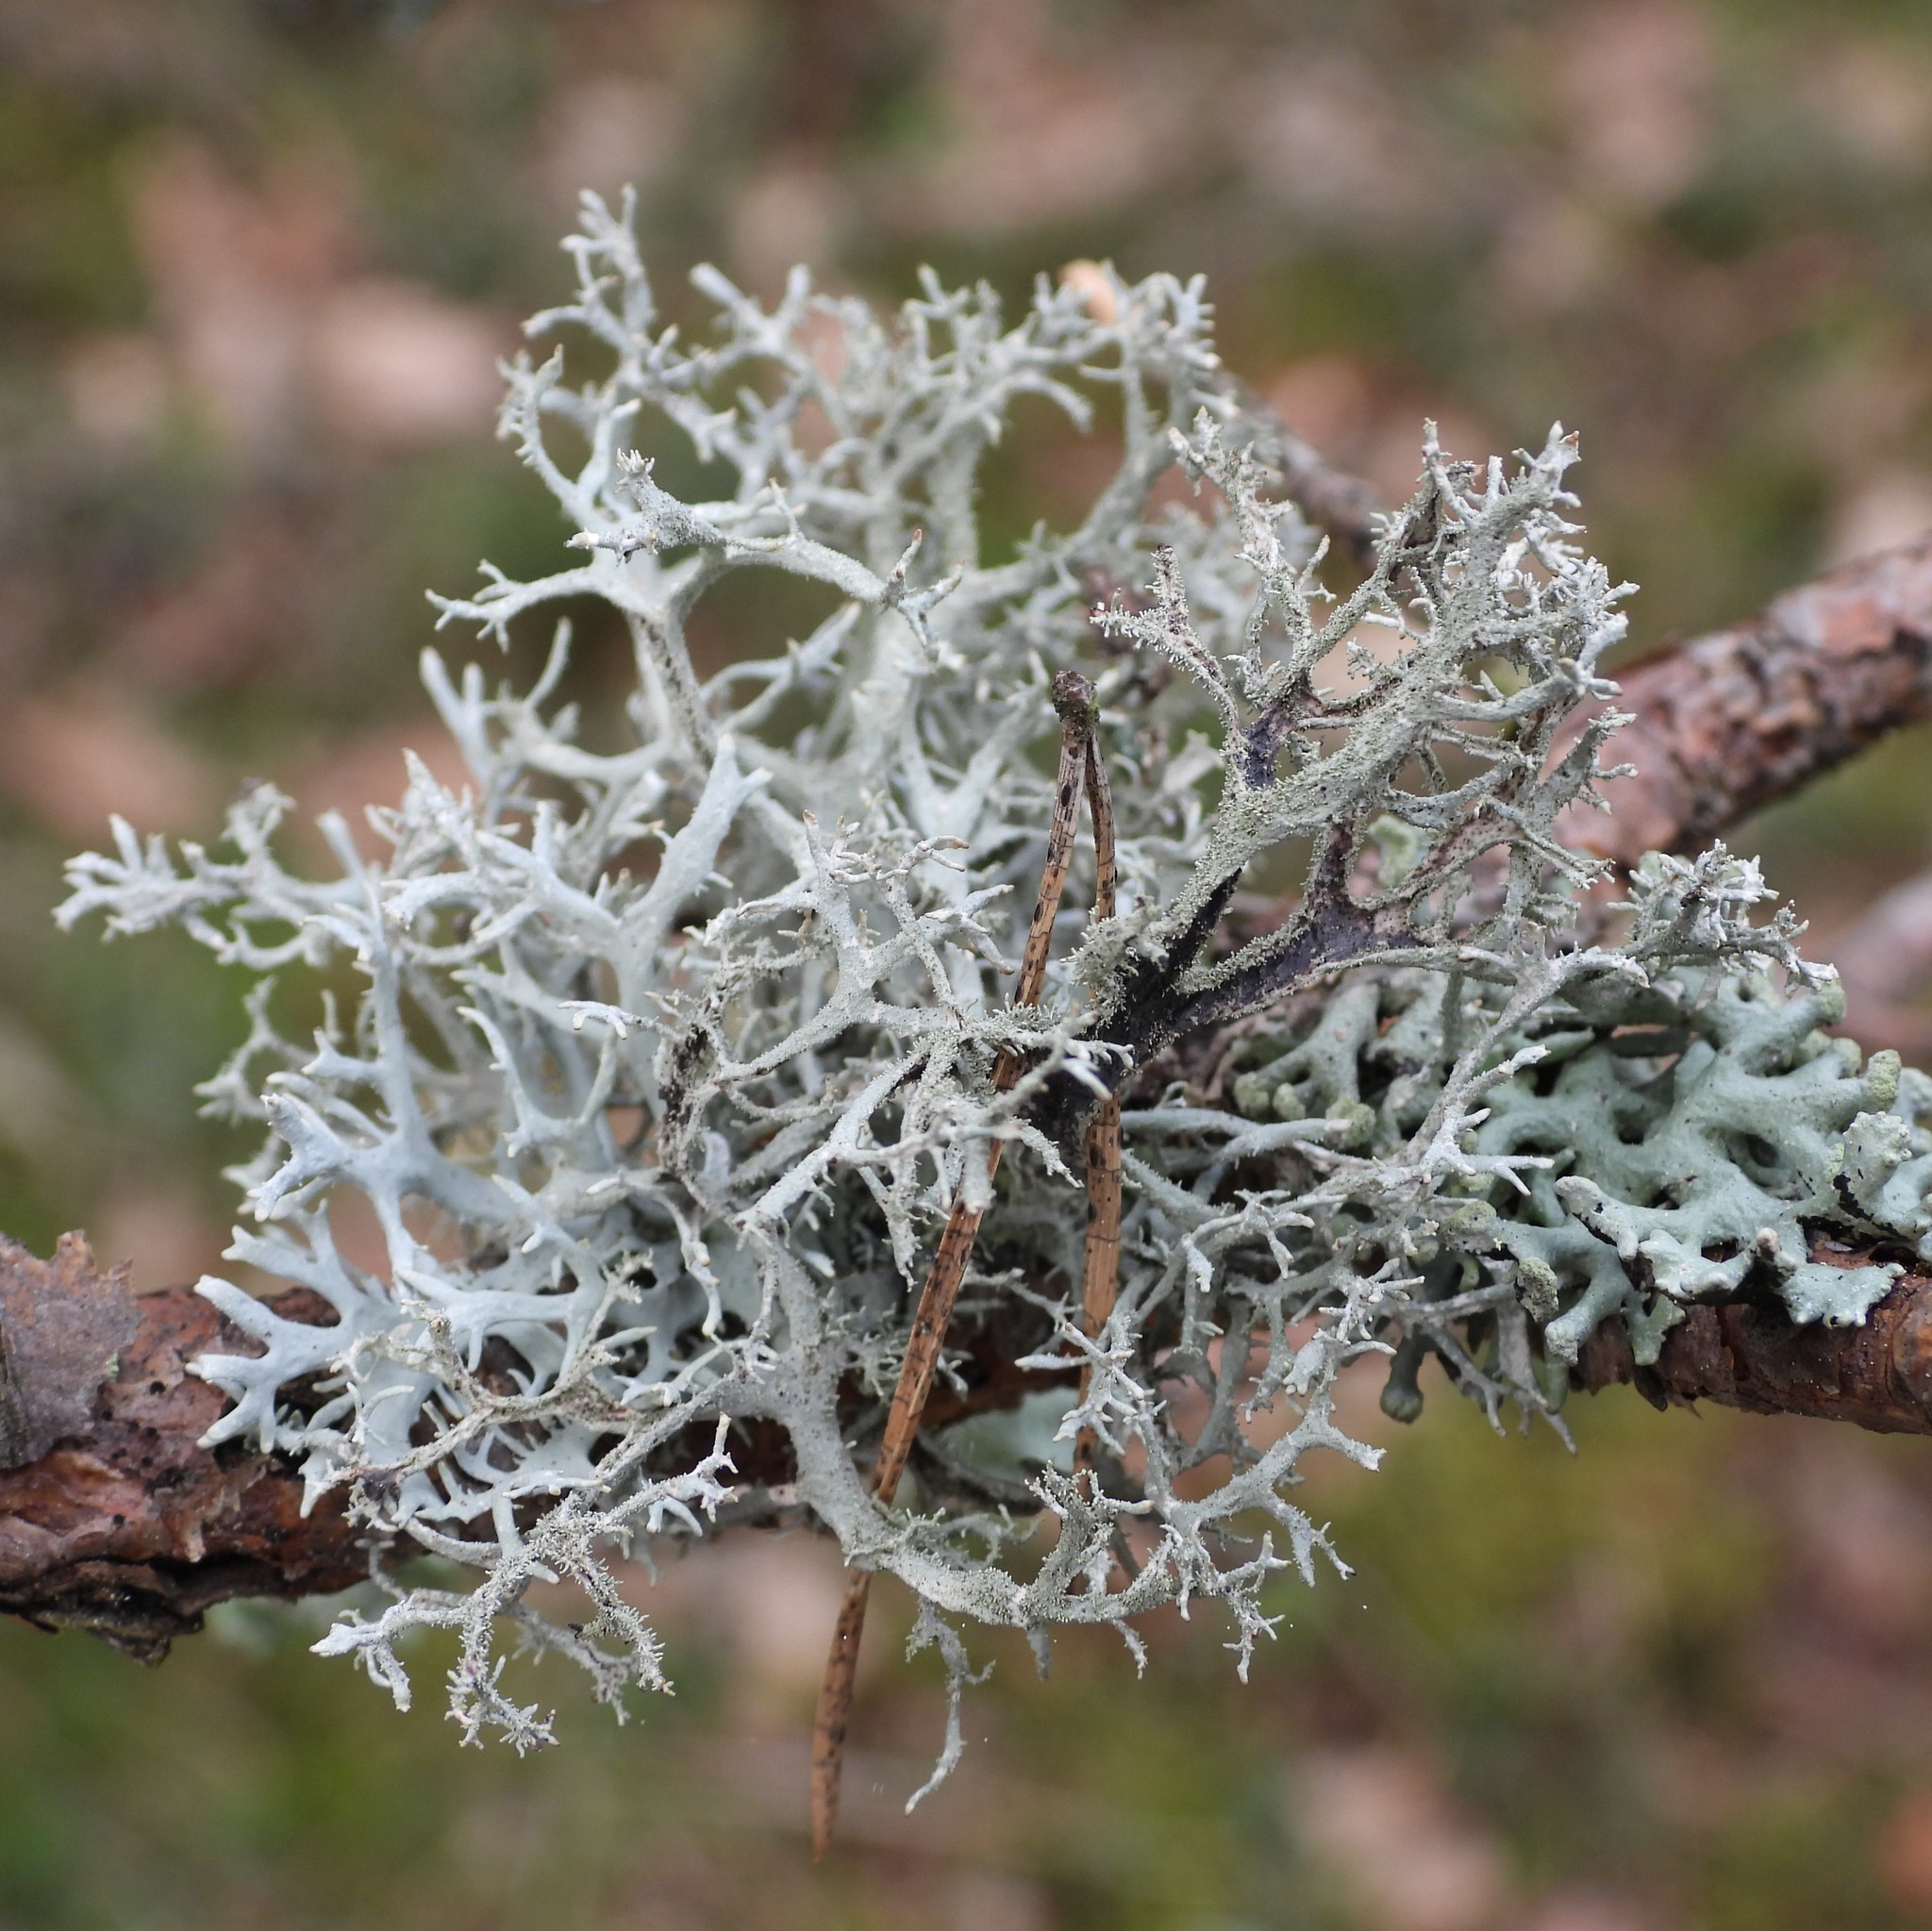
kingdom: Fungi
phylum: Ascomycota
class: Lecanoromycetes
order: Lecanorales
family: Parmeliaceae
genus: Pseudevernia
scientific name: Pseudevernia furfuracea
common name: Tree moss
